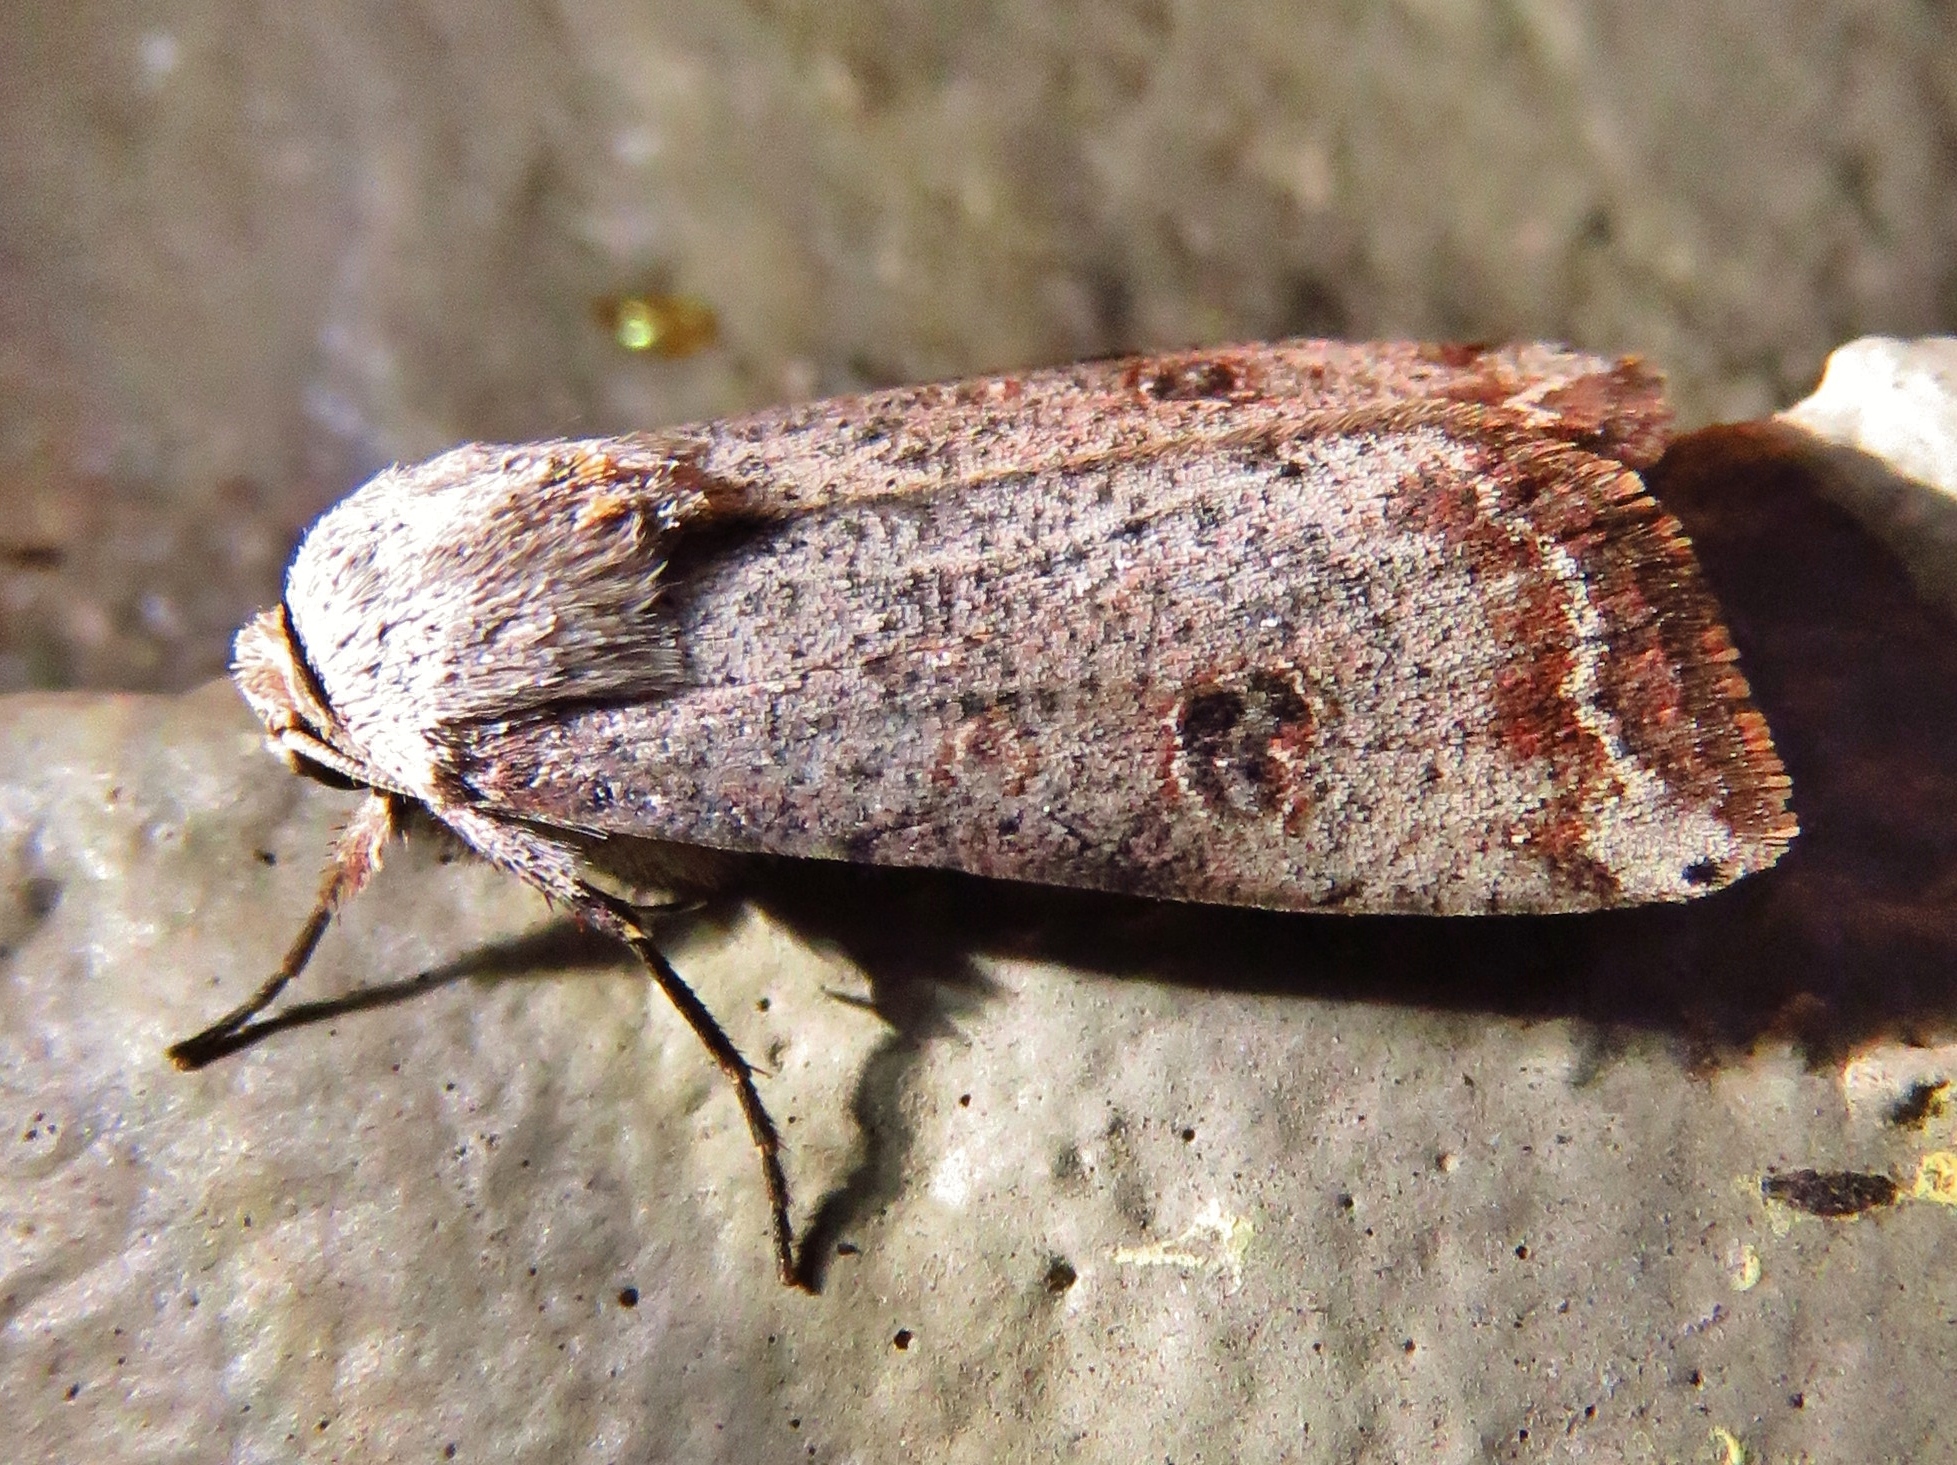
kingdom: Animalia
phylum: Arthropoda
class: Insecta
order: Lepidoptera
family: Noctuidae
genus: Anicla
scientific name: Anicla infecta
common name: Green cutworm
